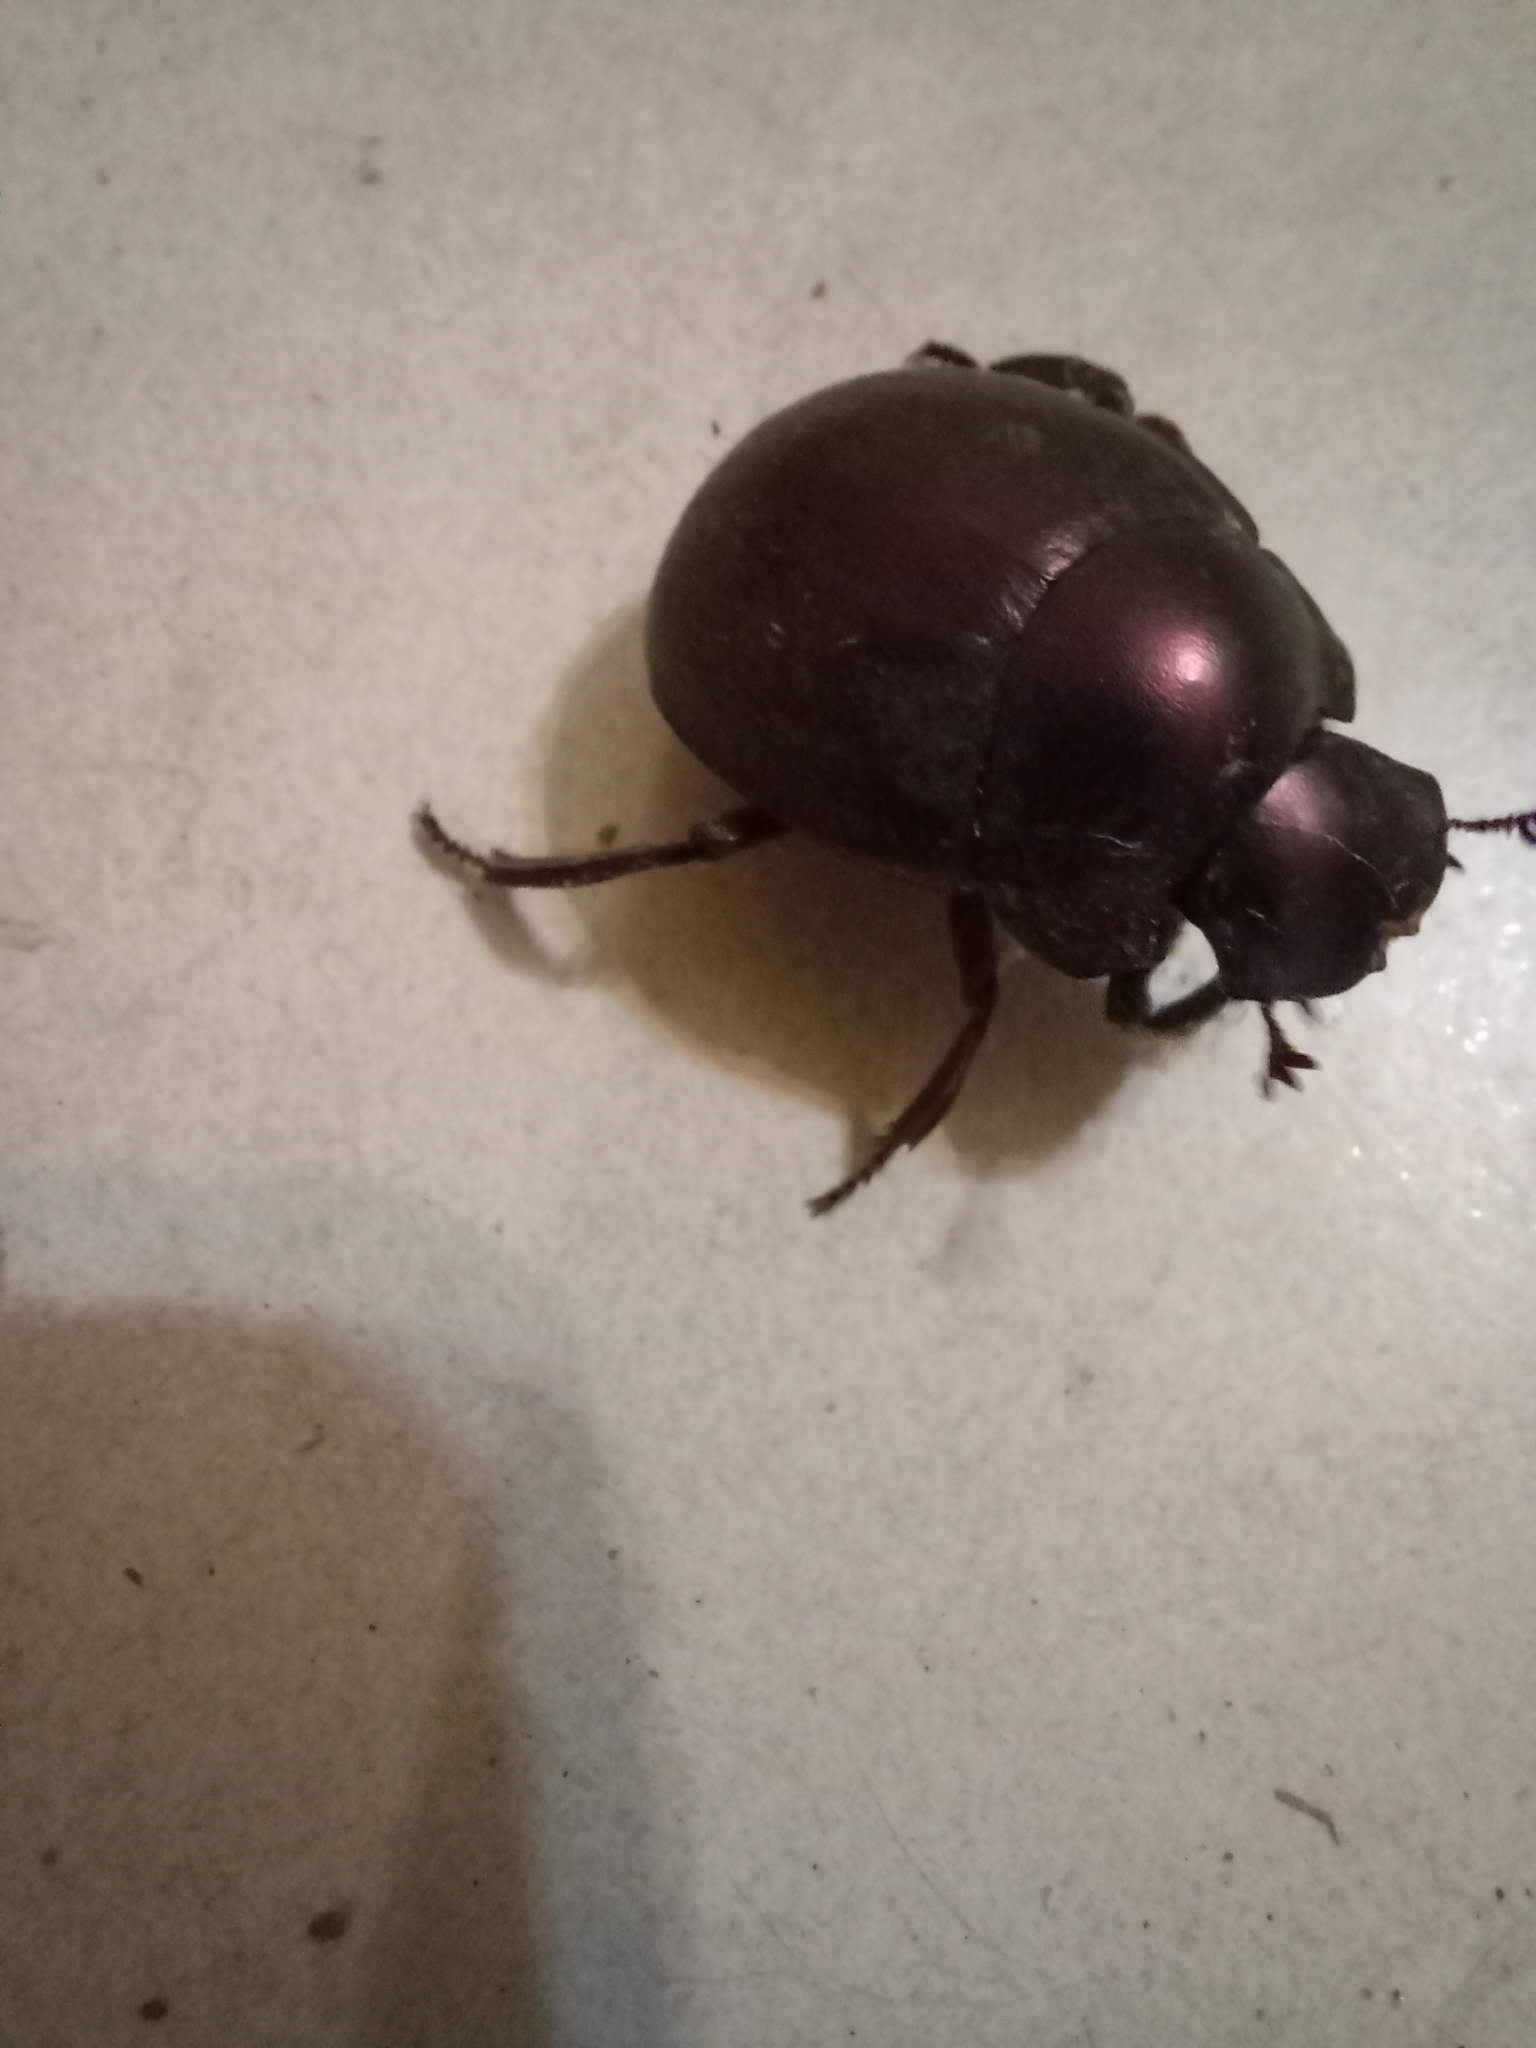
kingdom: Animalia
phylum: Arthropoda
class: Insecta
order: Coleoptera
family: Scarabaeidae
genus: Chalconotus
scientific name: Chalconotus convexus
